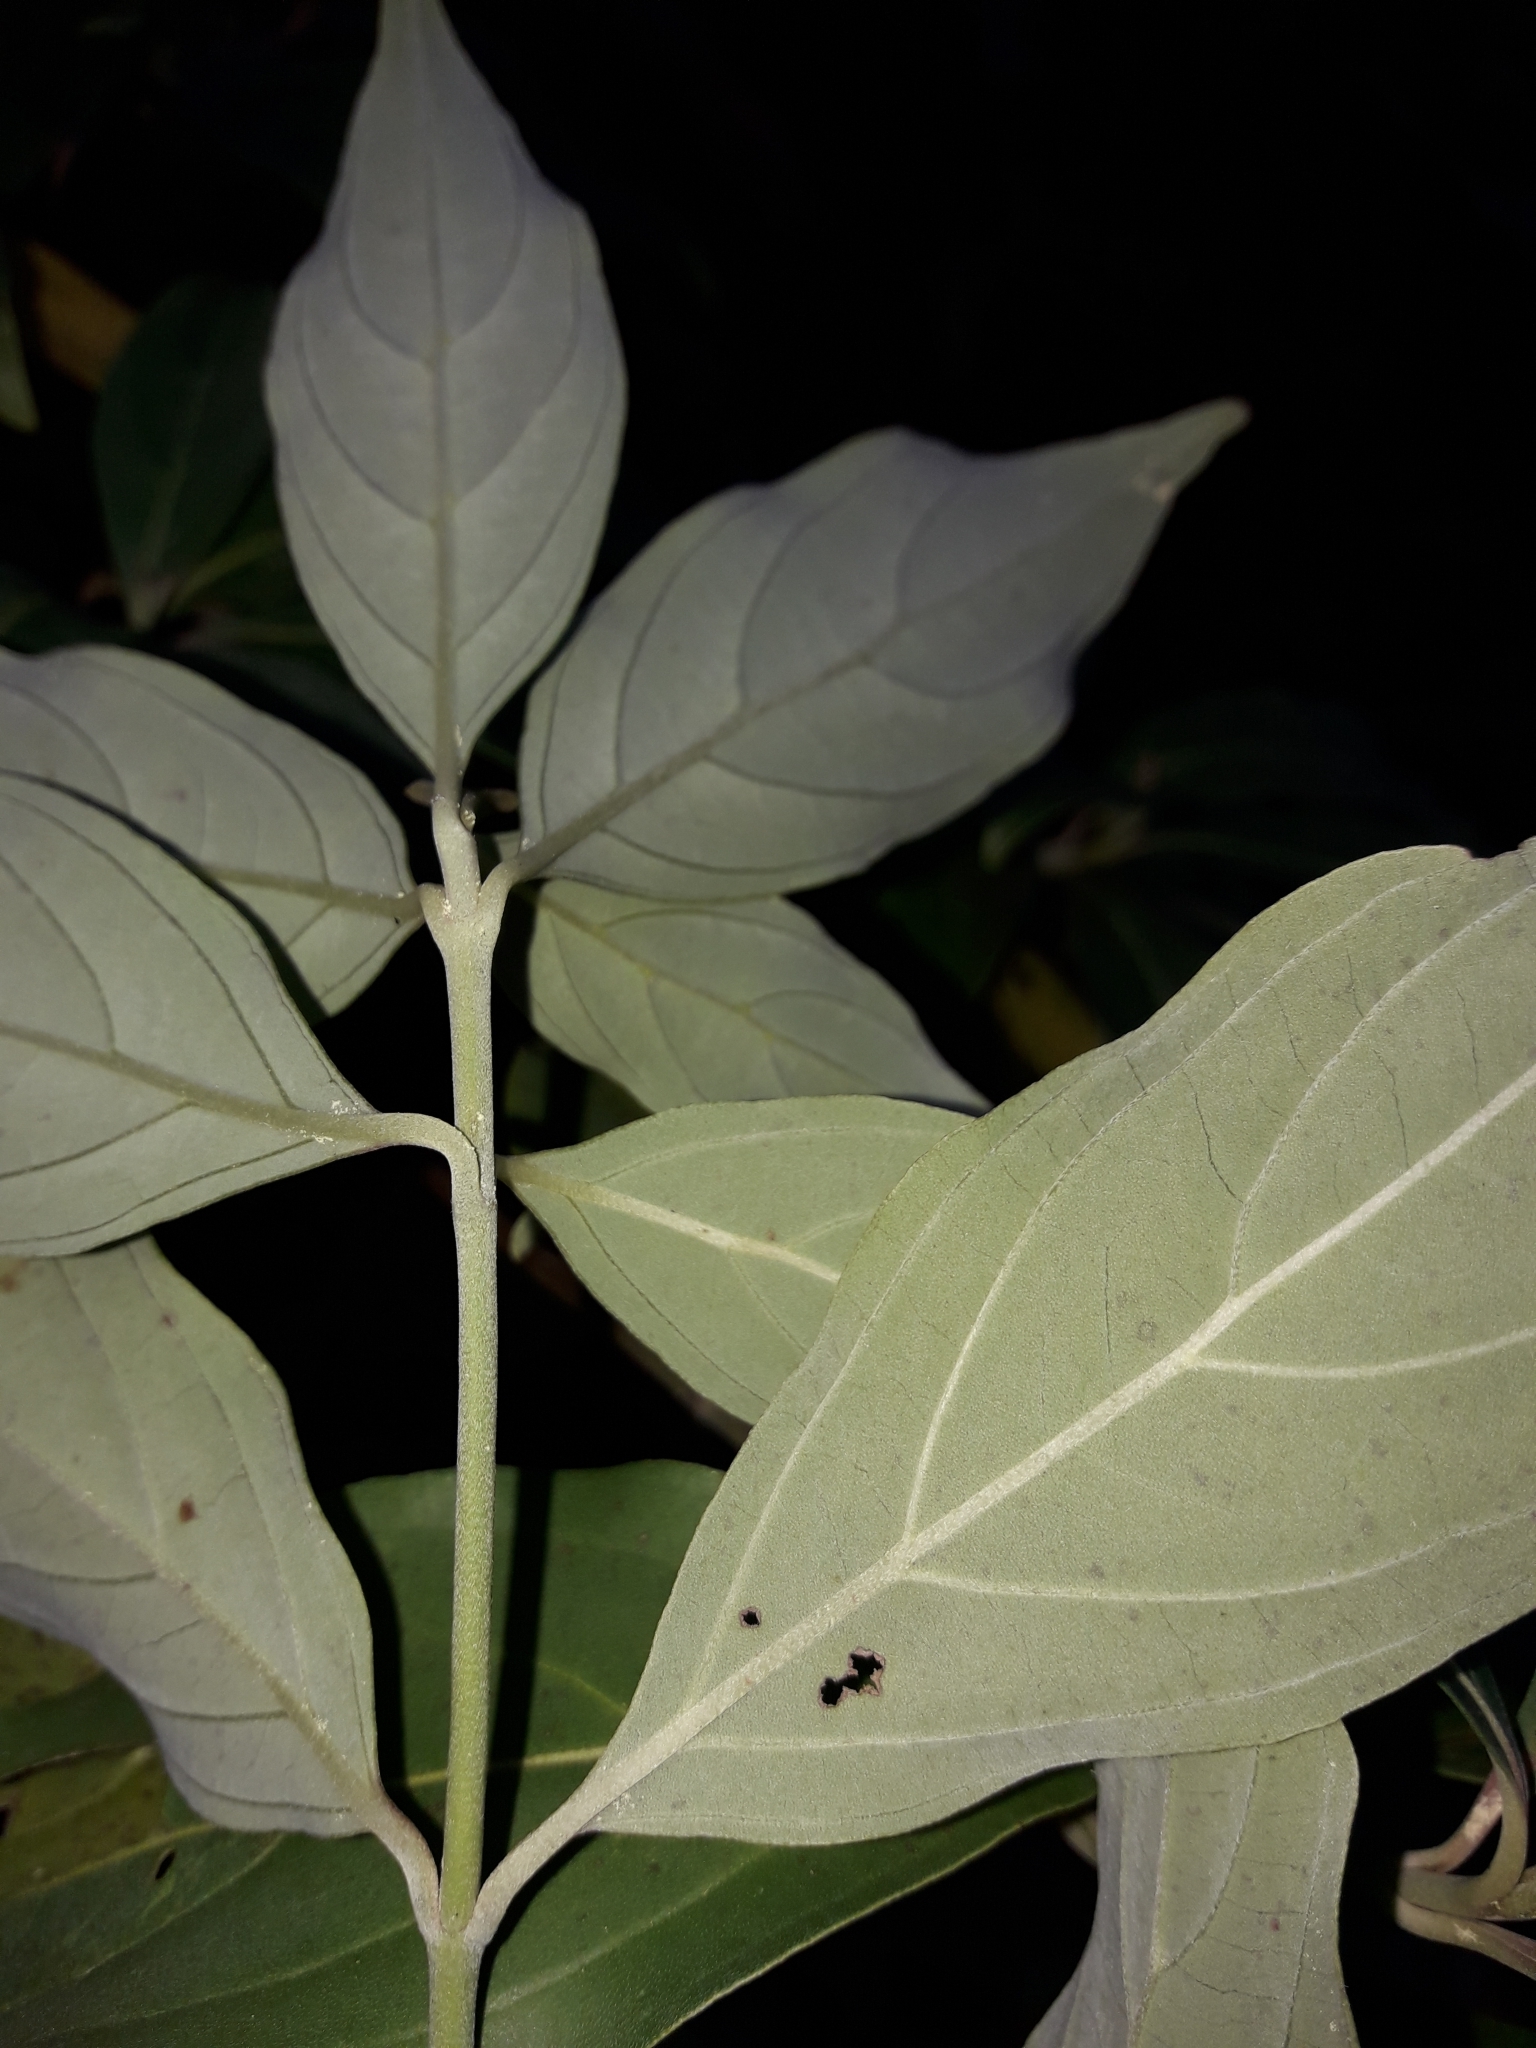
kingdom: Plantae
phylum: Tracheophyta
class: Magnoliopsida
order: Cornales
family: Cornaceae
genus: Cornus
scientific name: Cornus capitata
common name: Bentham's cornel
